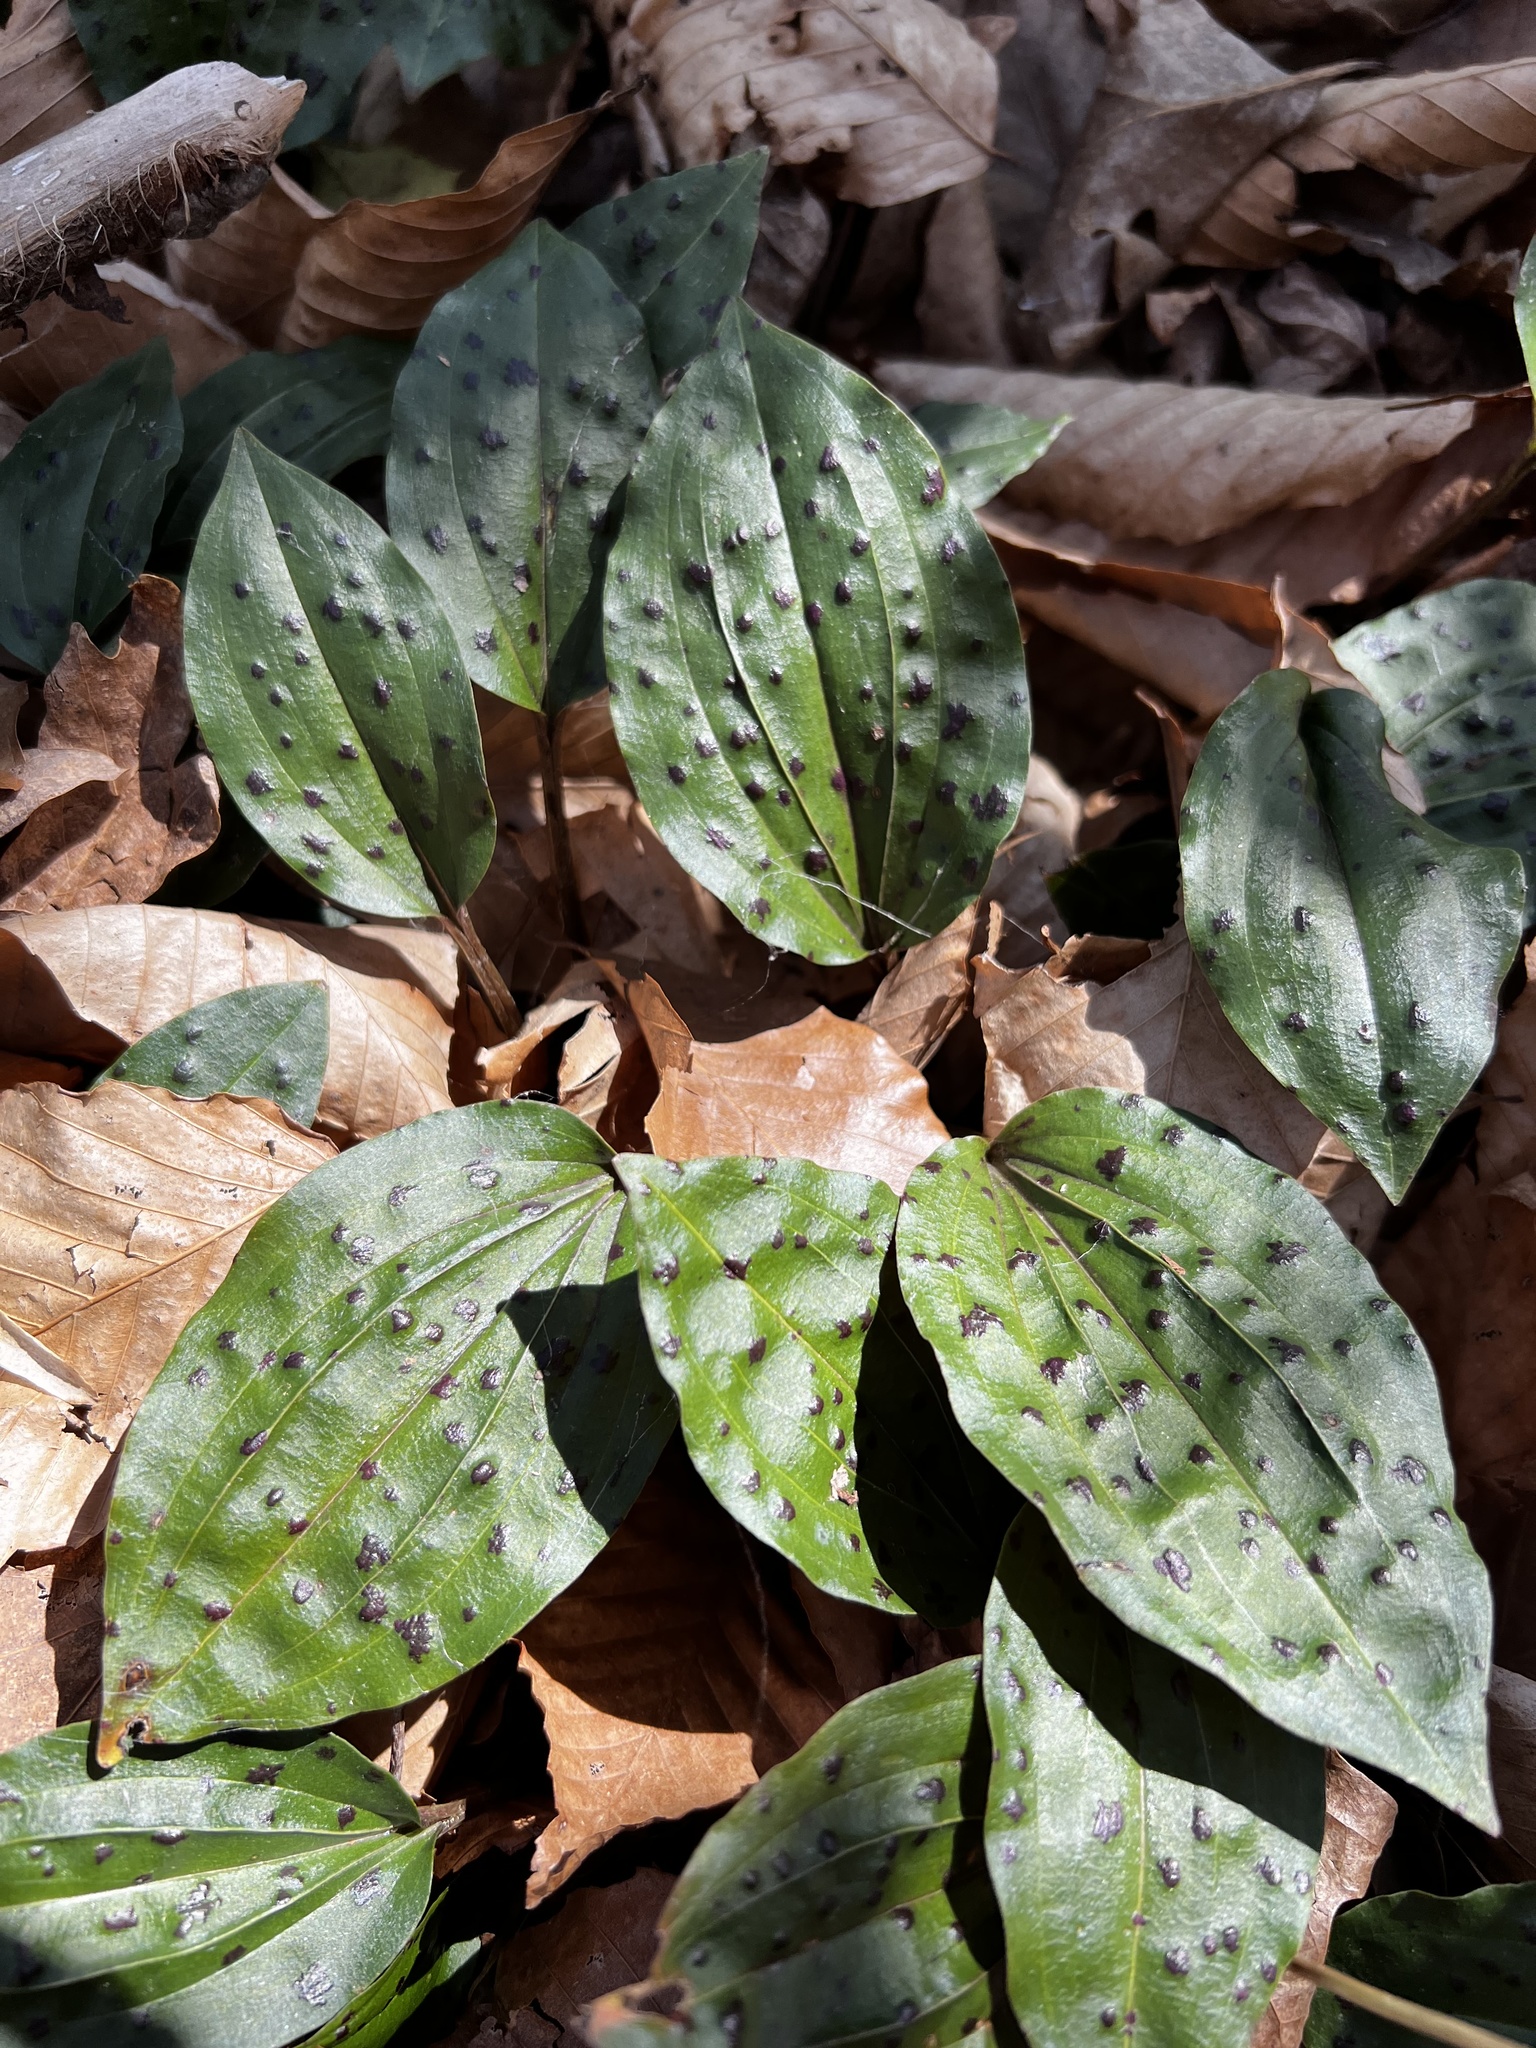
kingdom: Plantae
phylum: Tracheophyta
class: Liliopsida
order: Asparagales
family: Orchidaceae
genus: Tipularia
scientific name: Tipularia discolor
